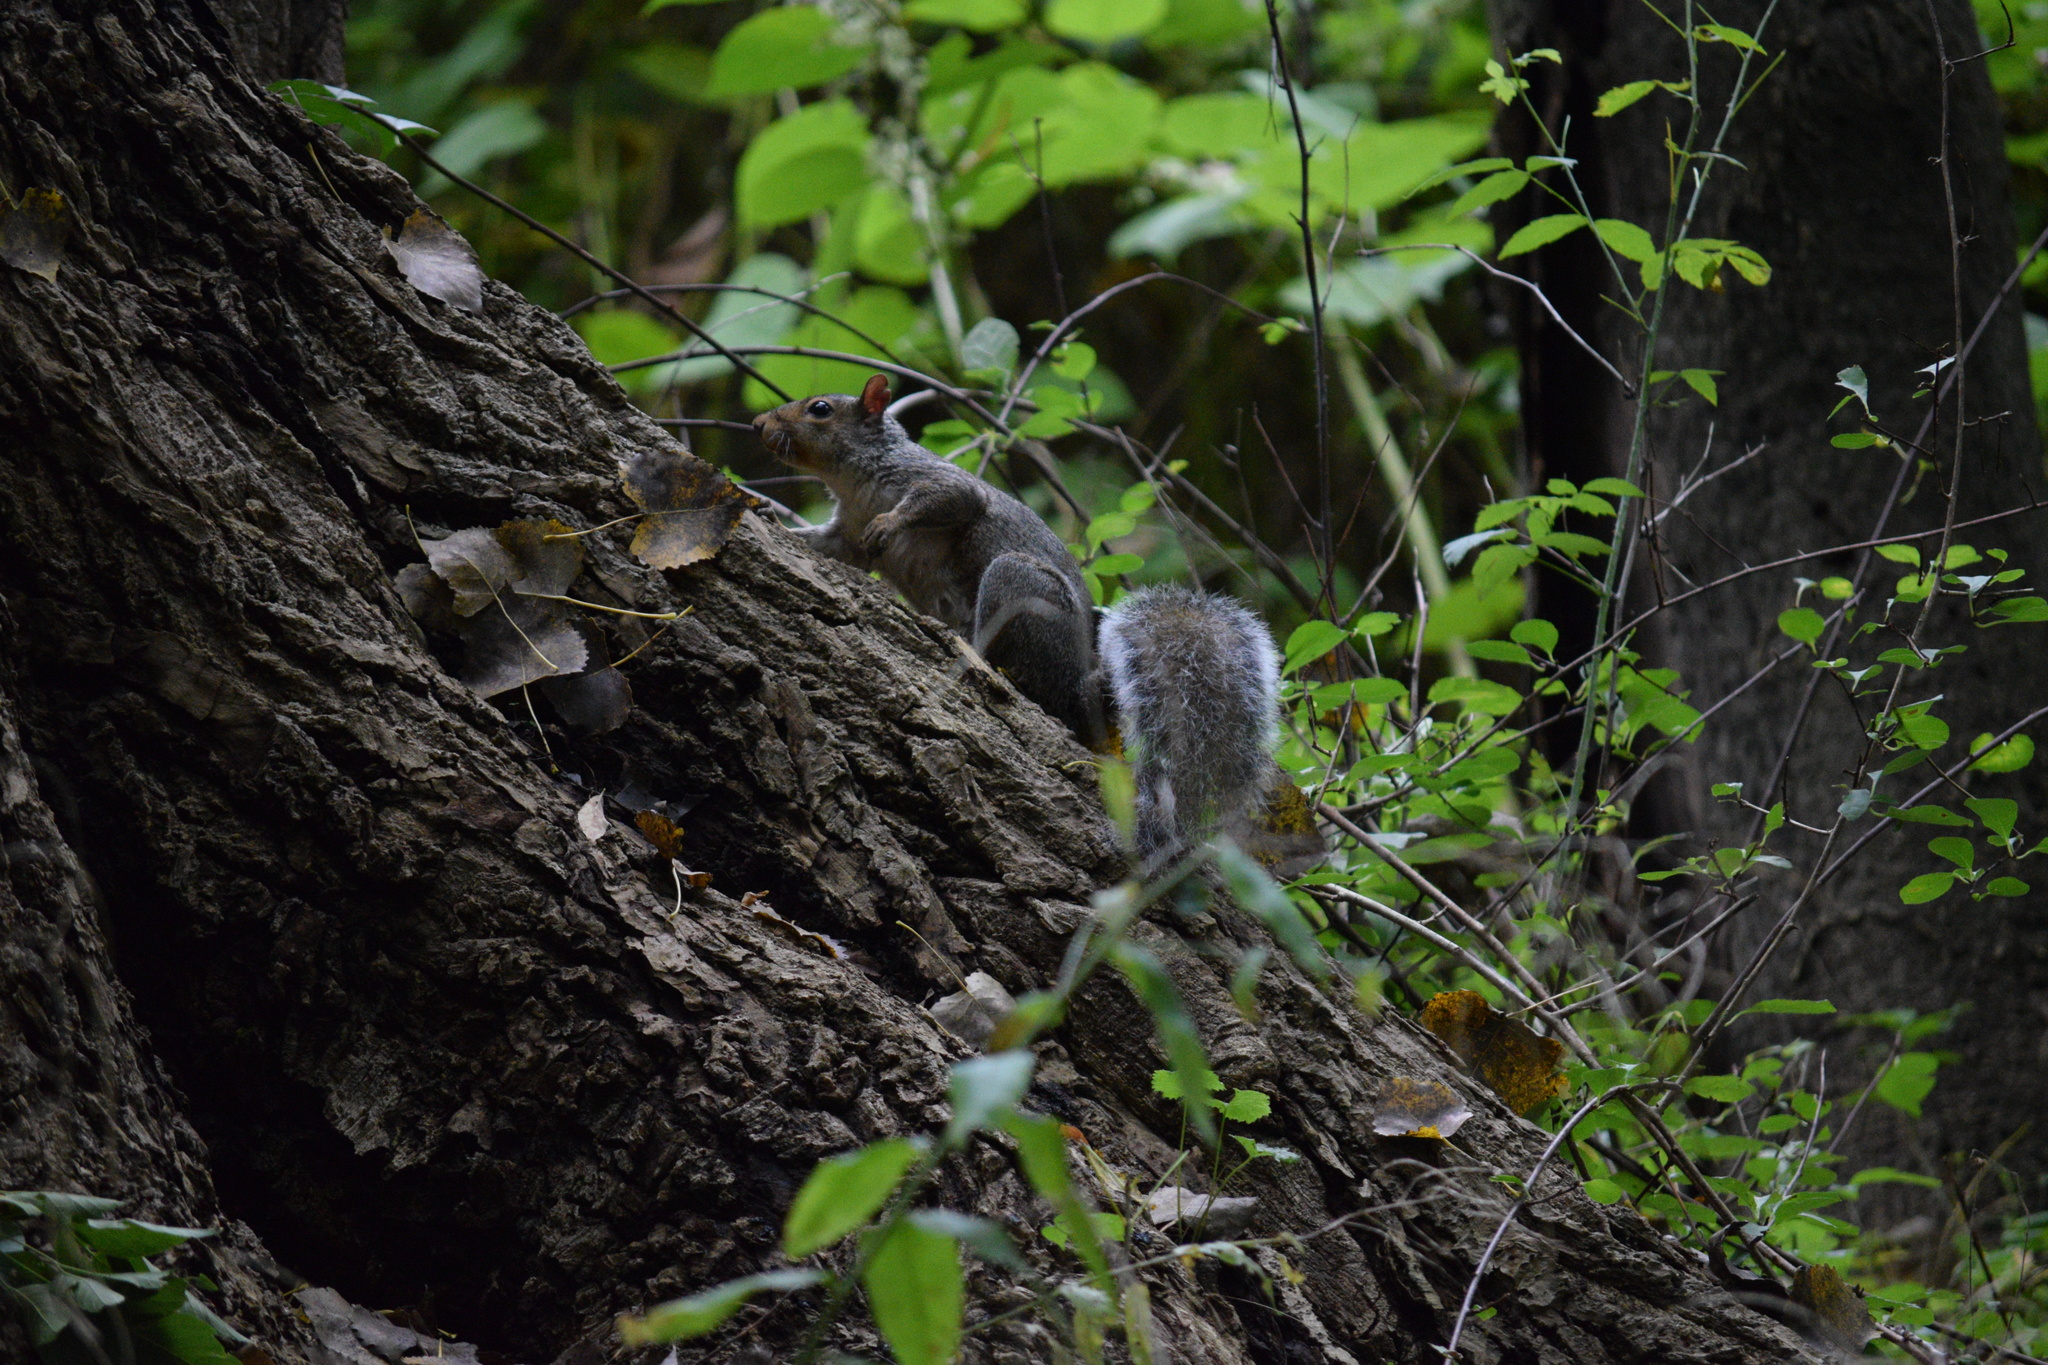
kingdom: Animalia
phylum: Chordata
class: Mammalia
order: Rodentia
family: Sciuridae
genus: Sciurus
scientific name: Sciurus carolinensis
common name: Eastern gray squirrel
